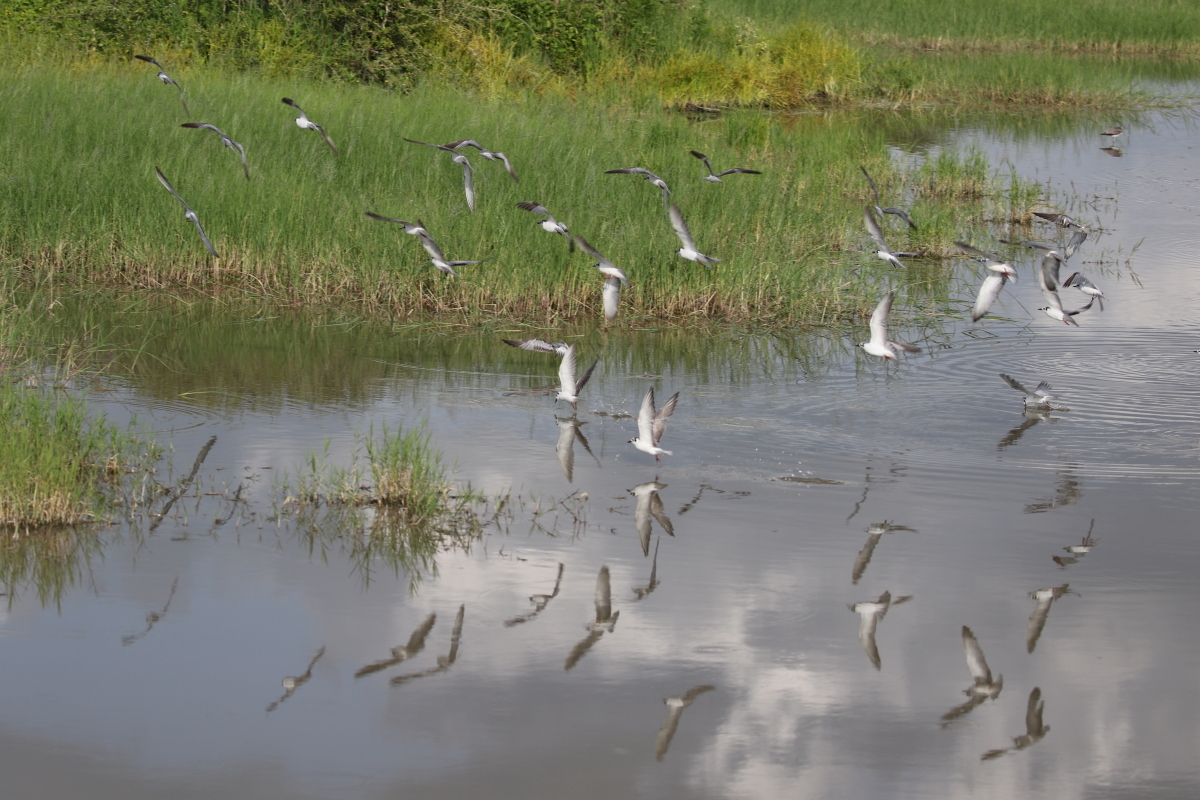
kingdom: Animalia
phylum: Chordata
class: Aves
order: Charadriiformes
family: Laridae
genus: Chlidonias
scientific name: Chlidonias leucopterus
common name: White-winged tern
